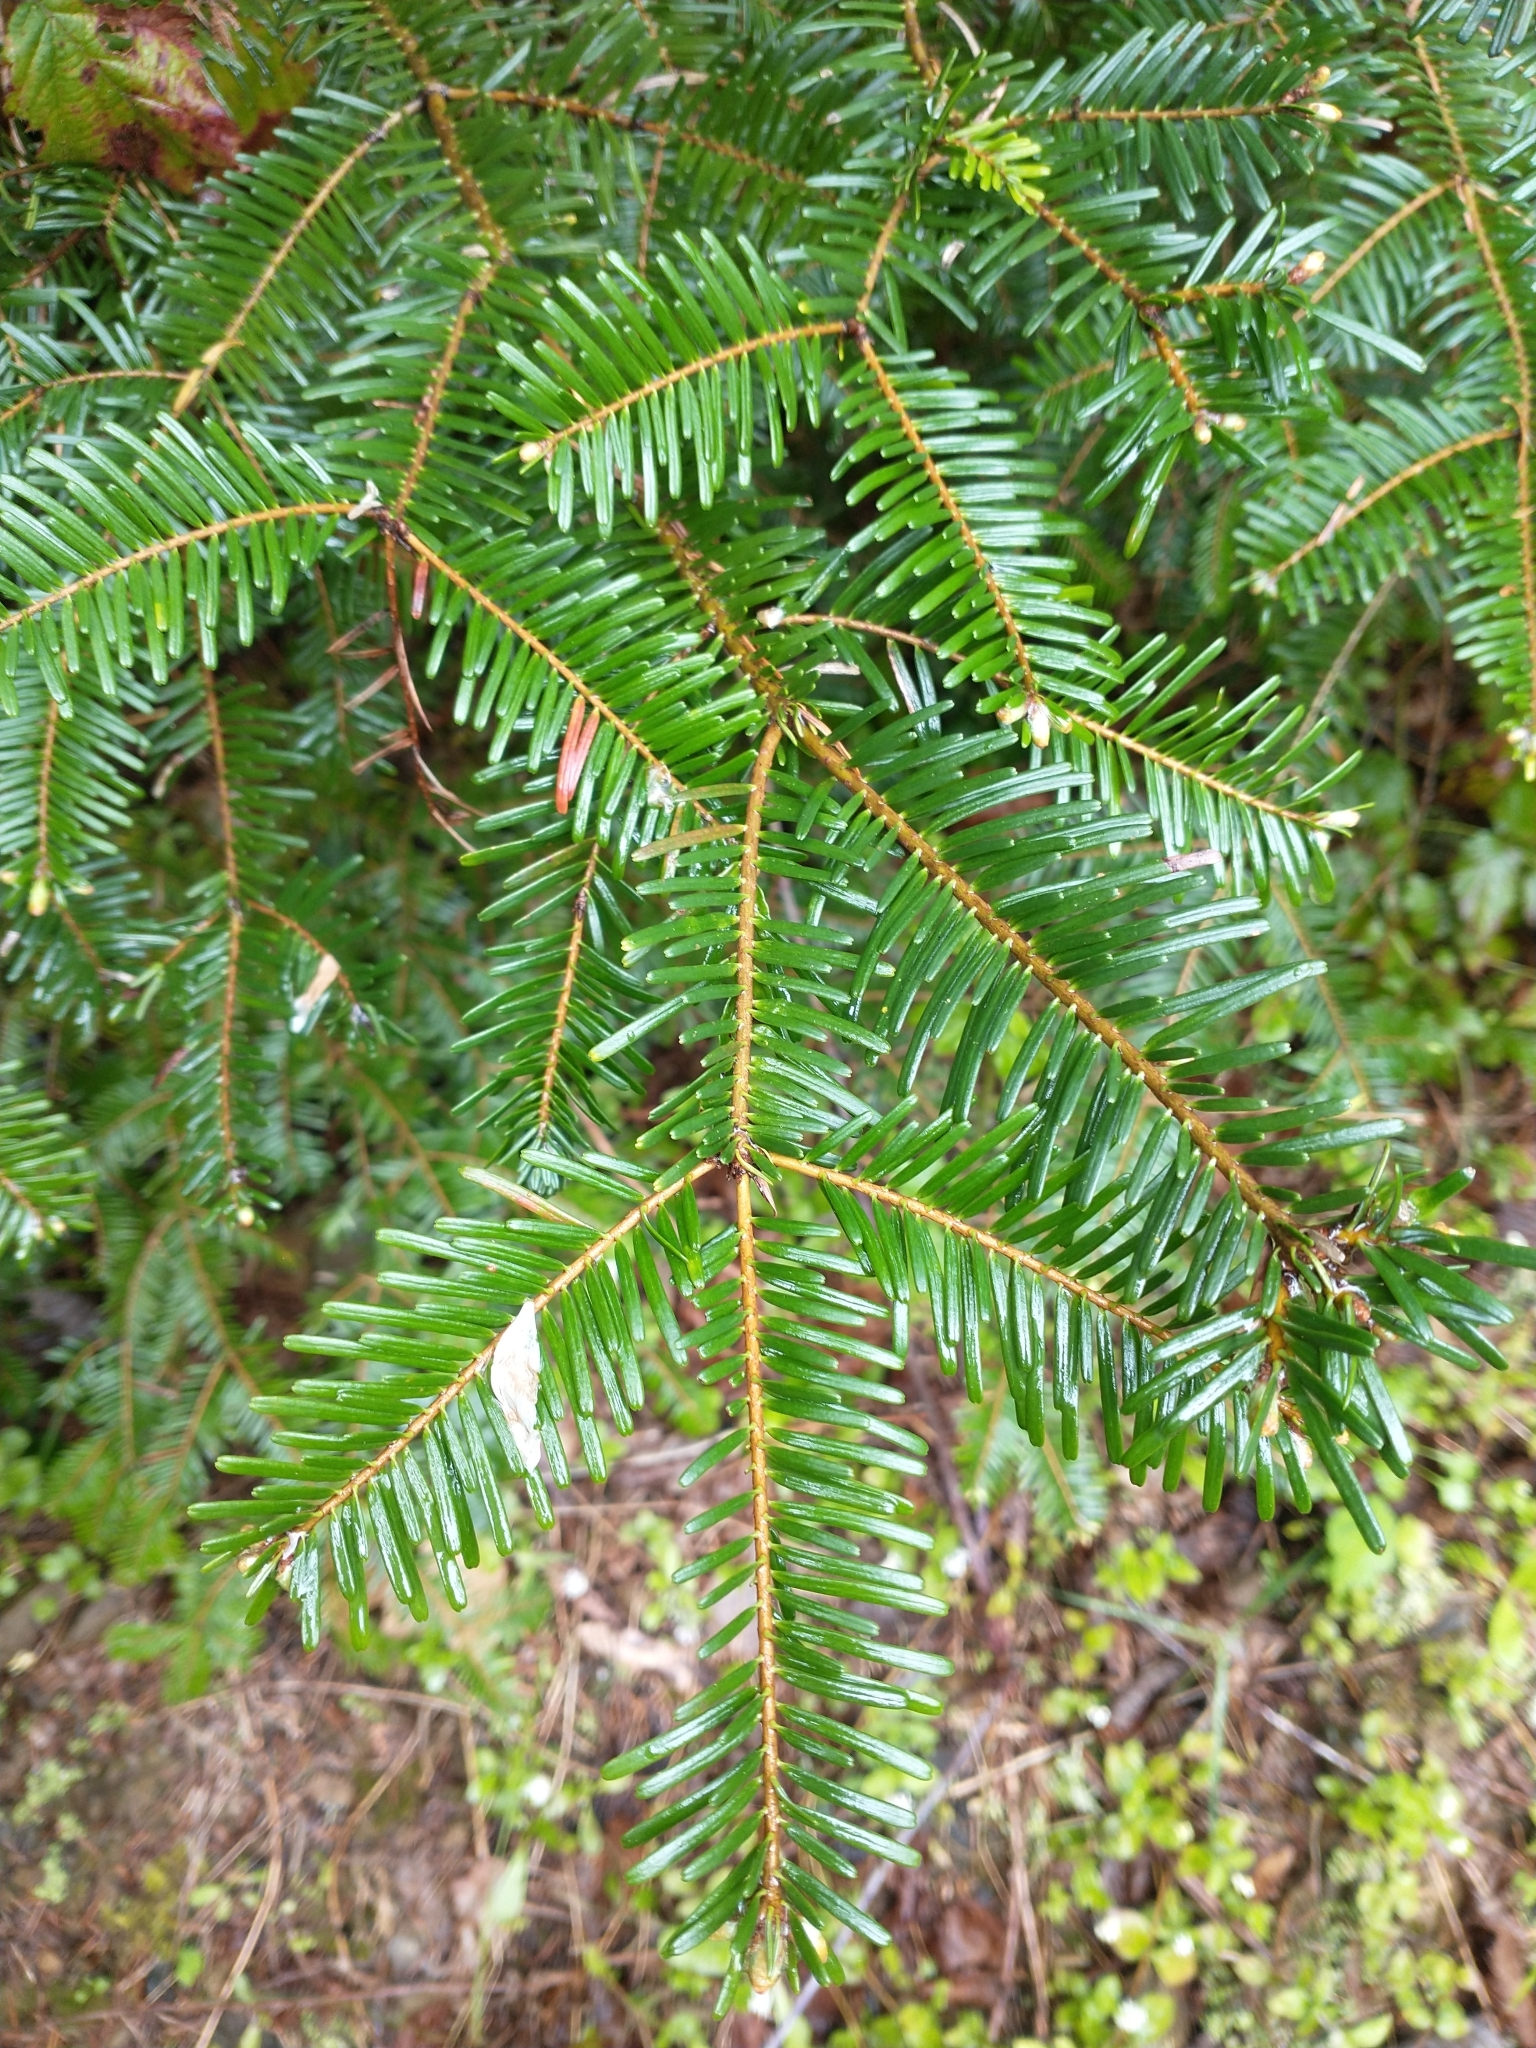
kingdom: Plantae
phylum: Tracheophyta
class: Pinopsida
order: Pinales
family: Pinaceae
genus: Abies
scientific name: Abies grandis
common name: Giant fir
